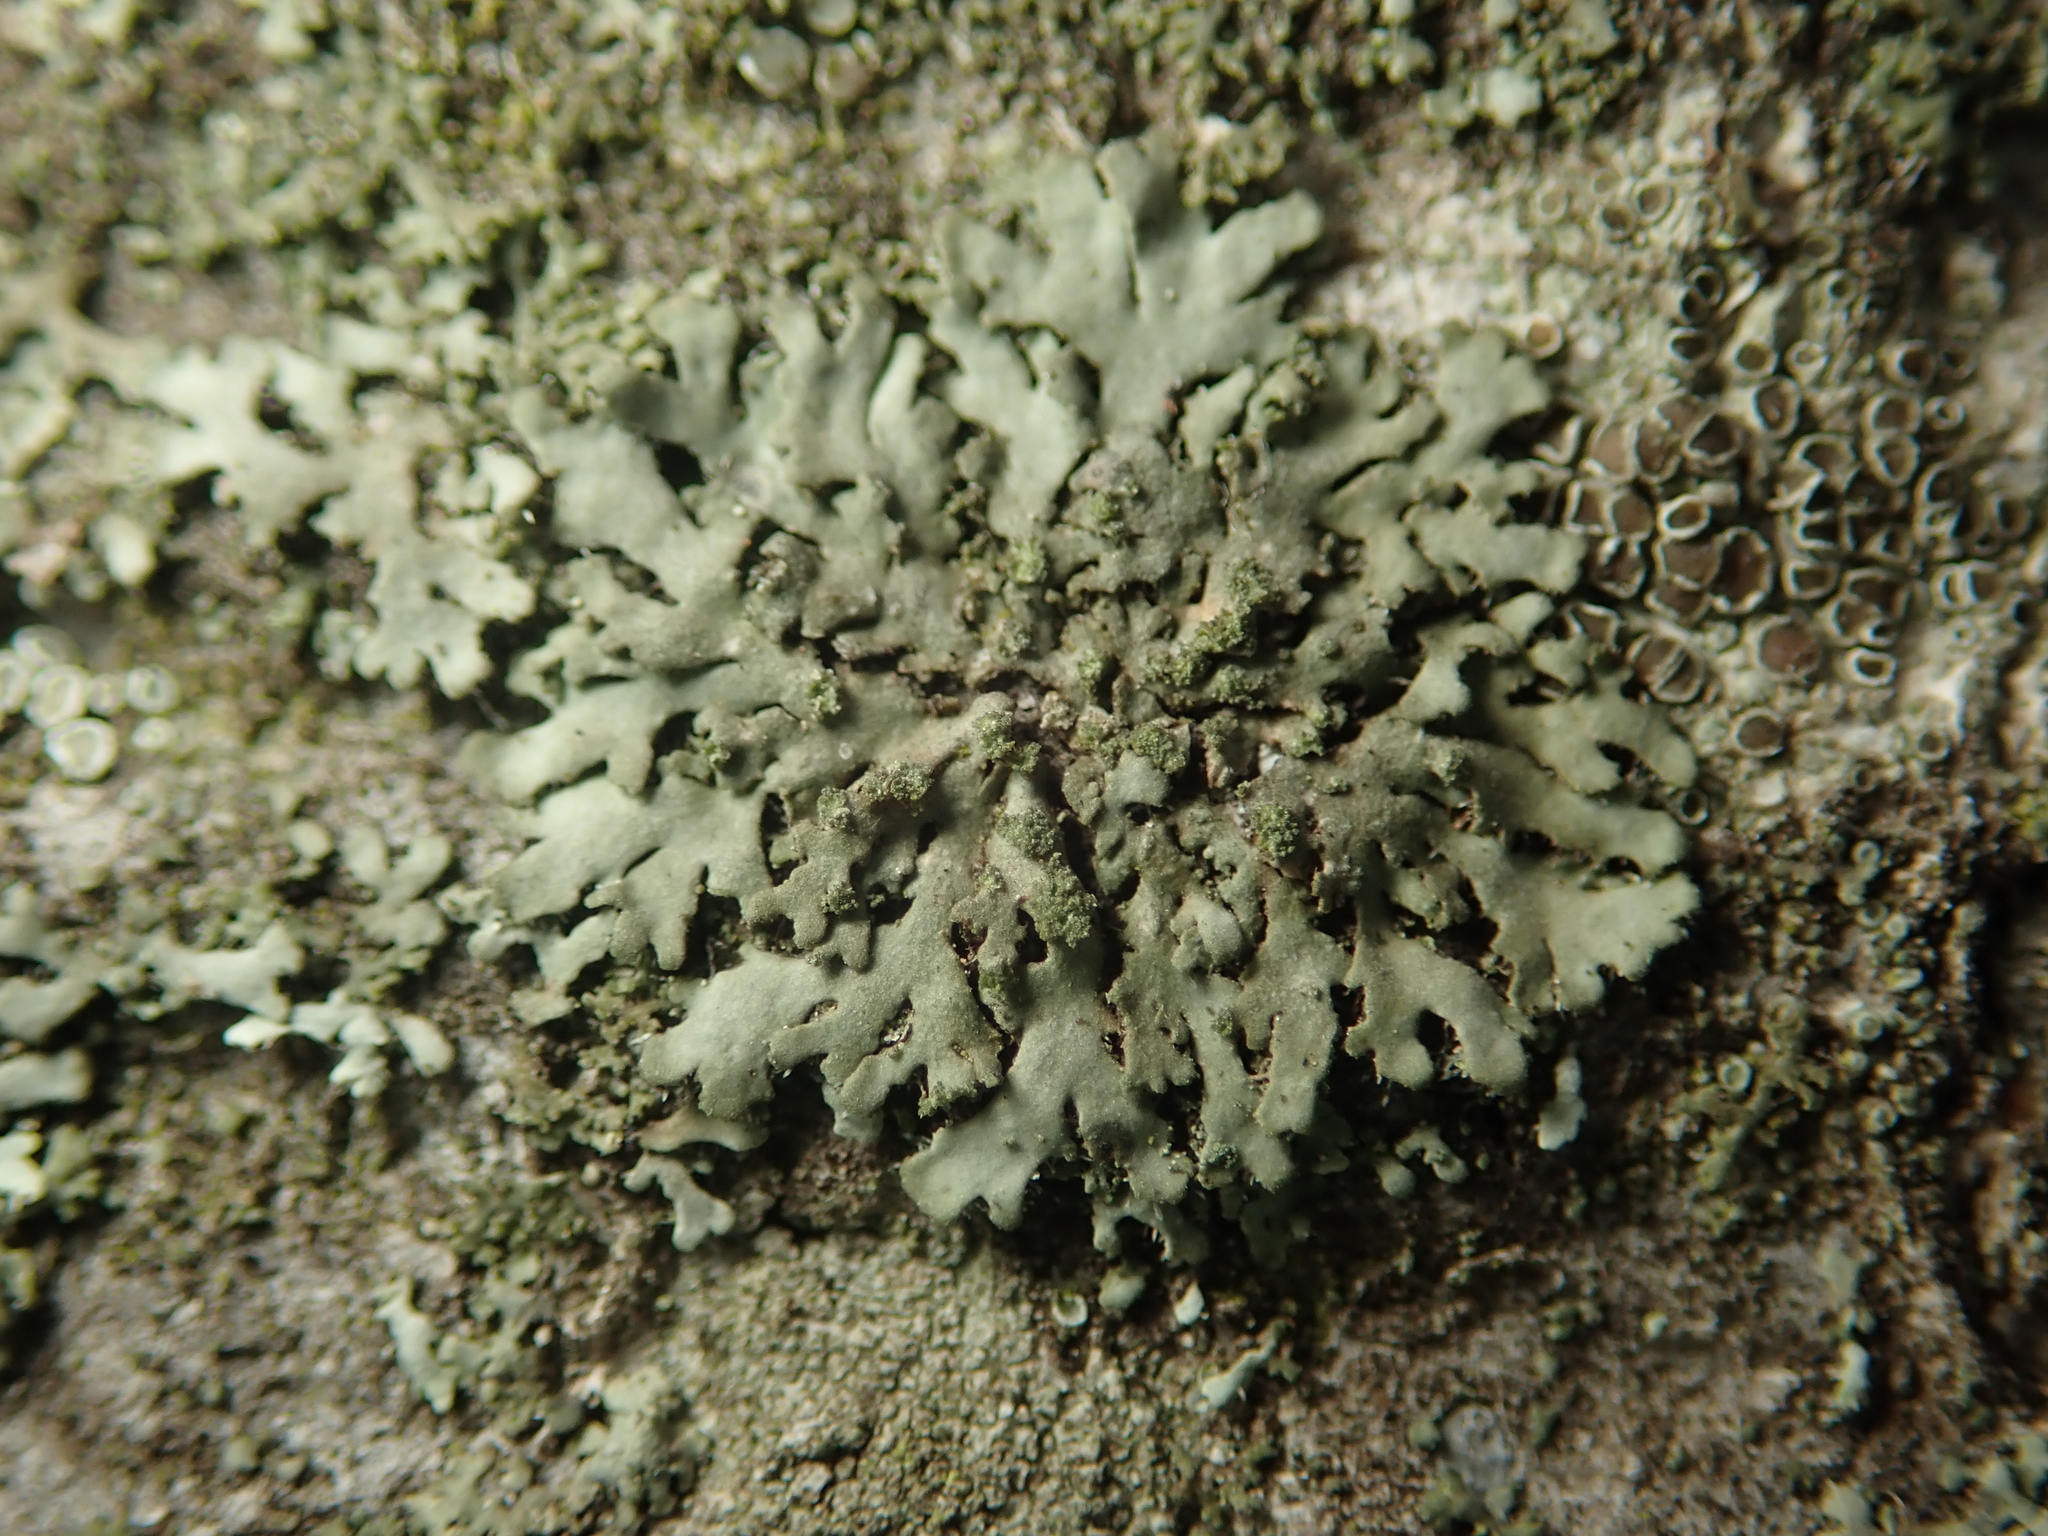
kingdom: Fungi
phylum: Ascomycota
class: Lecanoromycetes
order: Caliciales
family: Physciaceae
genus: Phaeophyscia
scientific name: Phaeophyscia orbicularis
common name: Mealy shadow lichen
